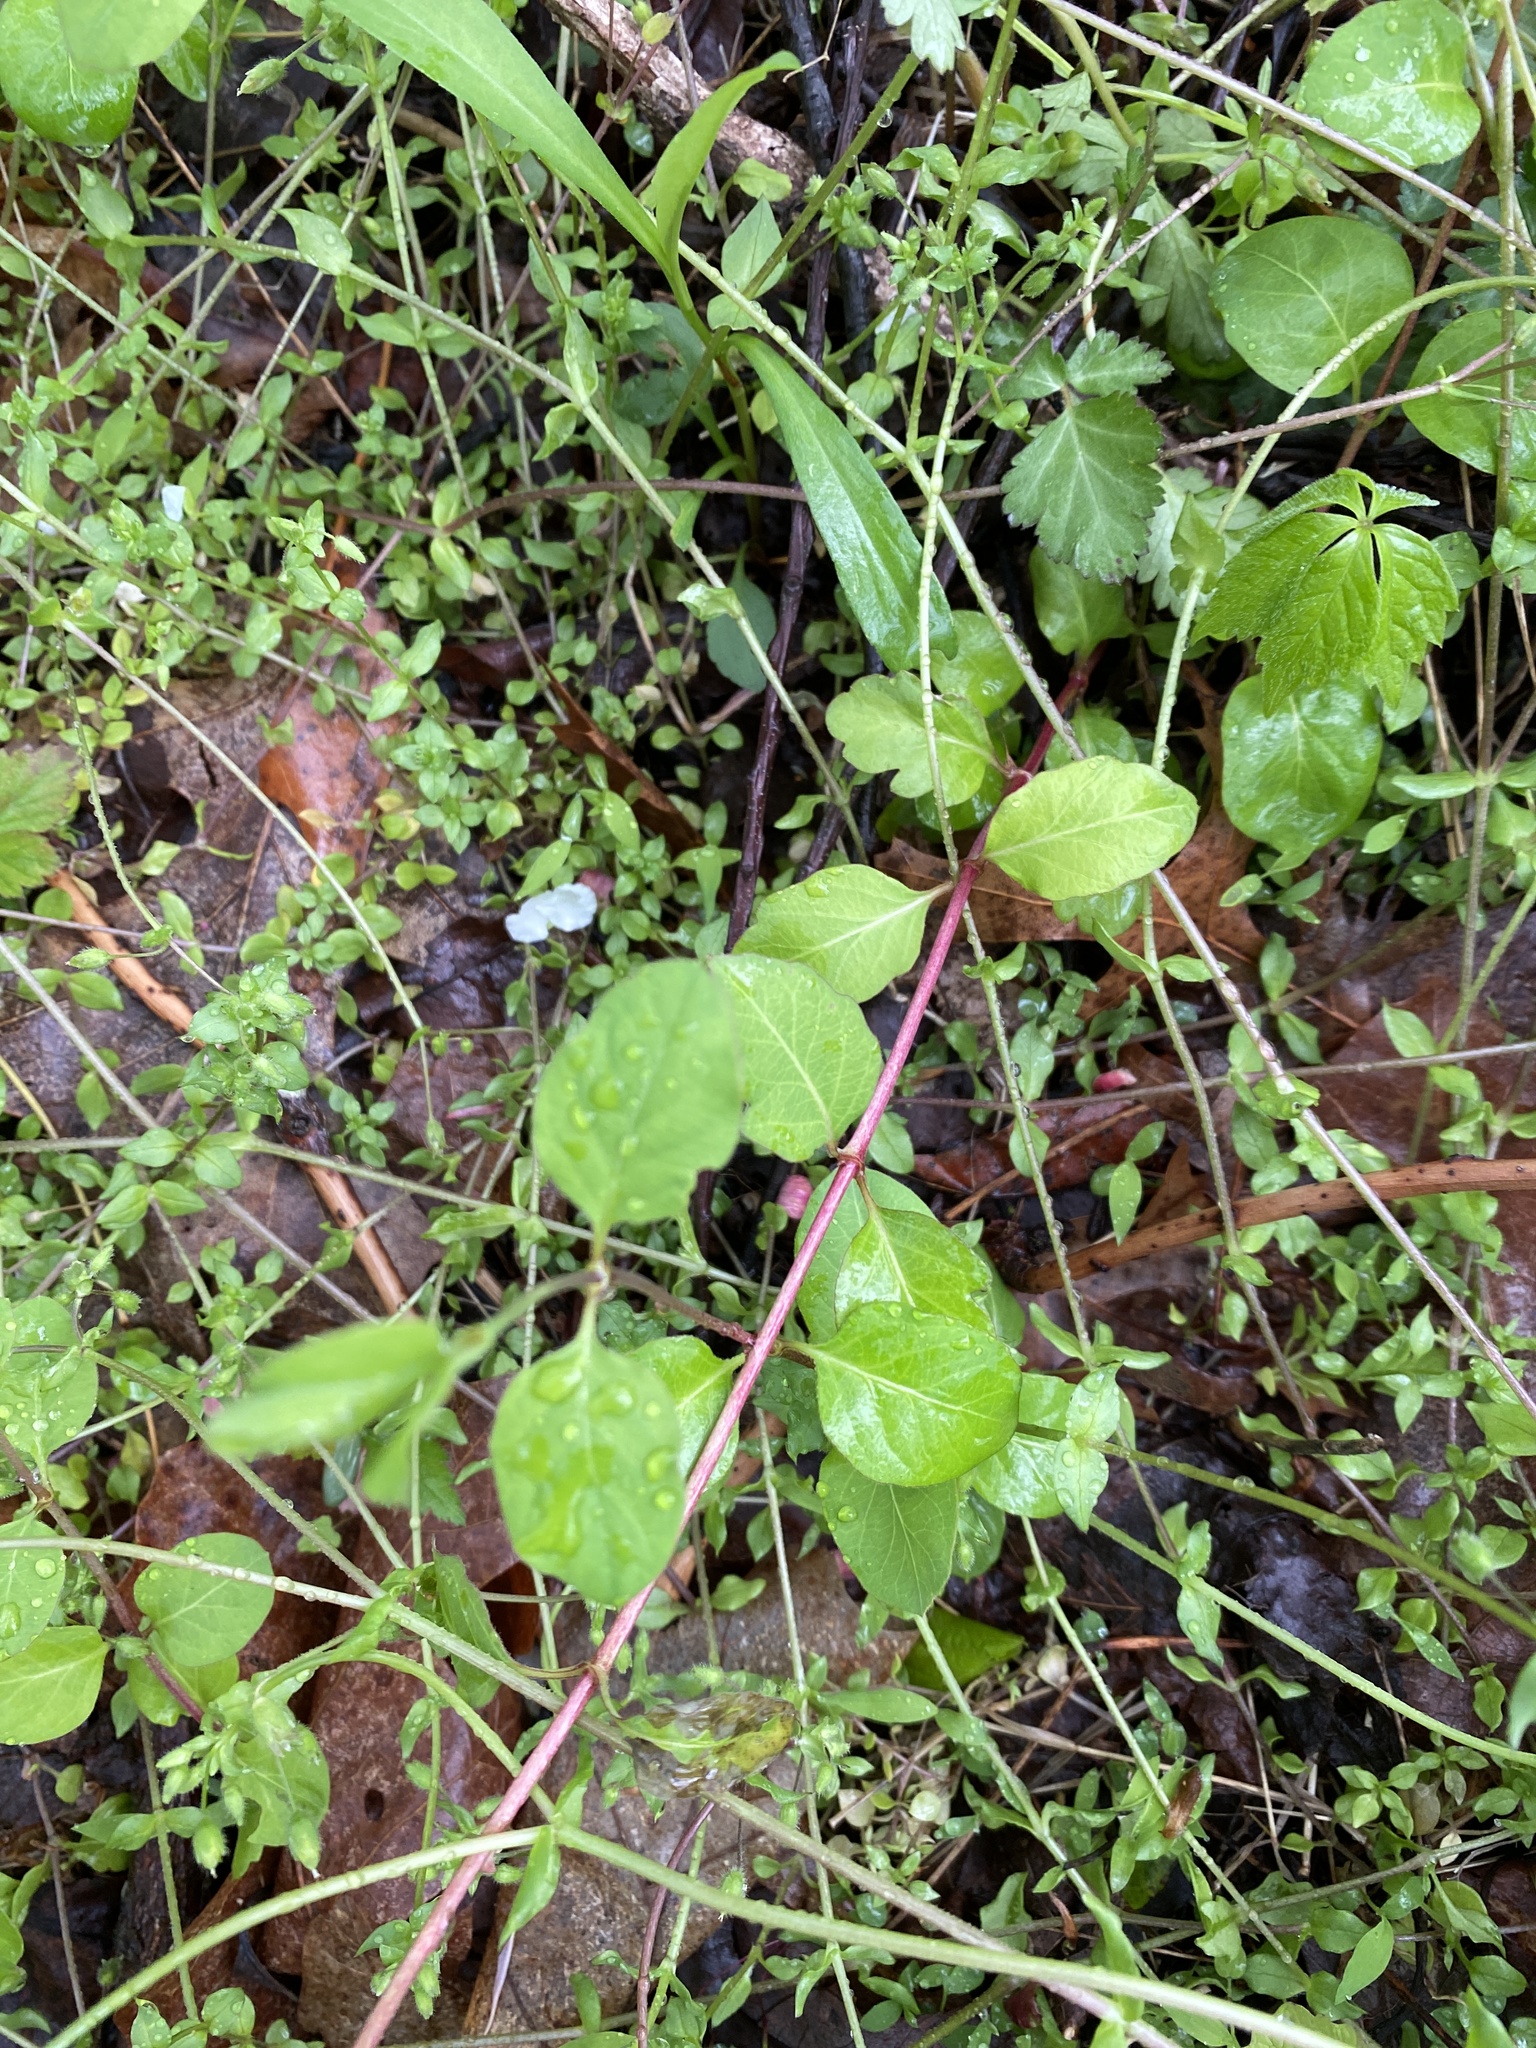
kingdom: Plantae
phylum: Tracheophyta
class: Magnoliopsida
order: Dipsacales
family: Caprifoliaceae
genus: Lonicera
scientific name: Lonicera japonica
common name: Japanese honeysuckle
